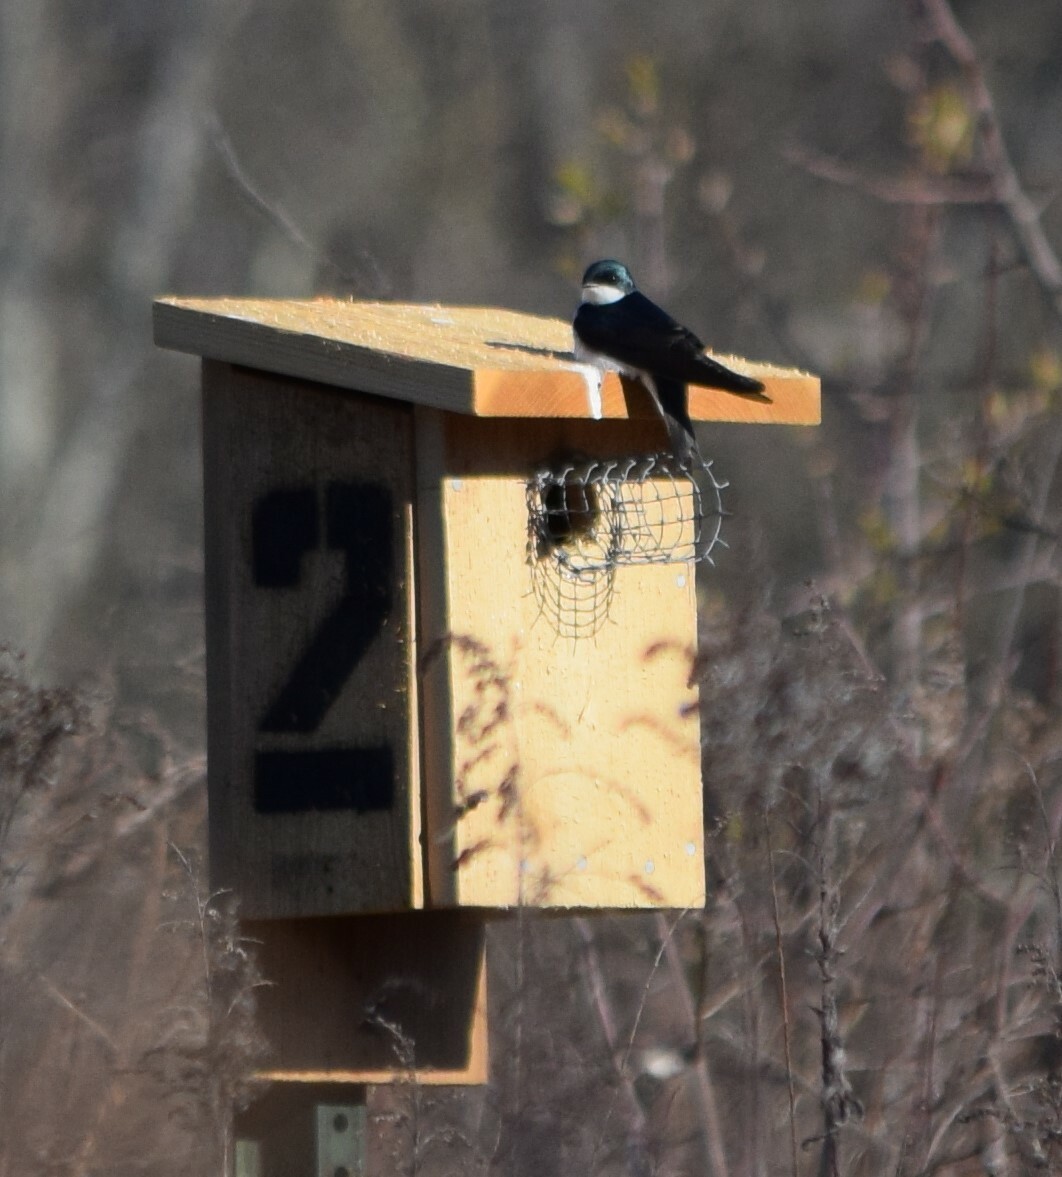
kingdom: Animalia
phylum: Chordata
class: Aves
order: Passeriformes
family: Hirundinidae
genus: Tachycineta
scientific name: Tachycineta bicolor
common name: Tree swallow
